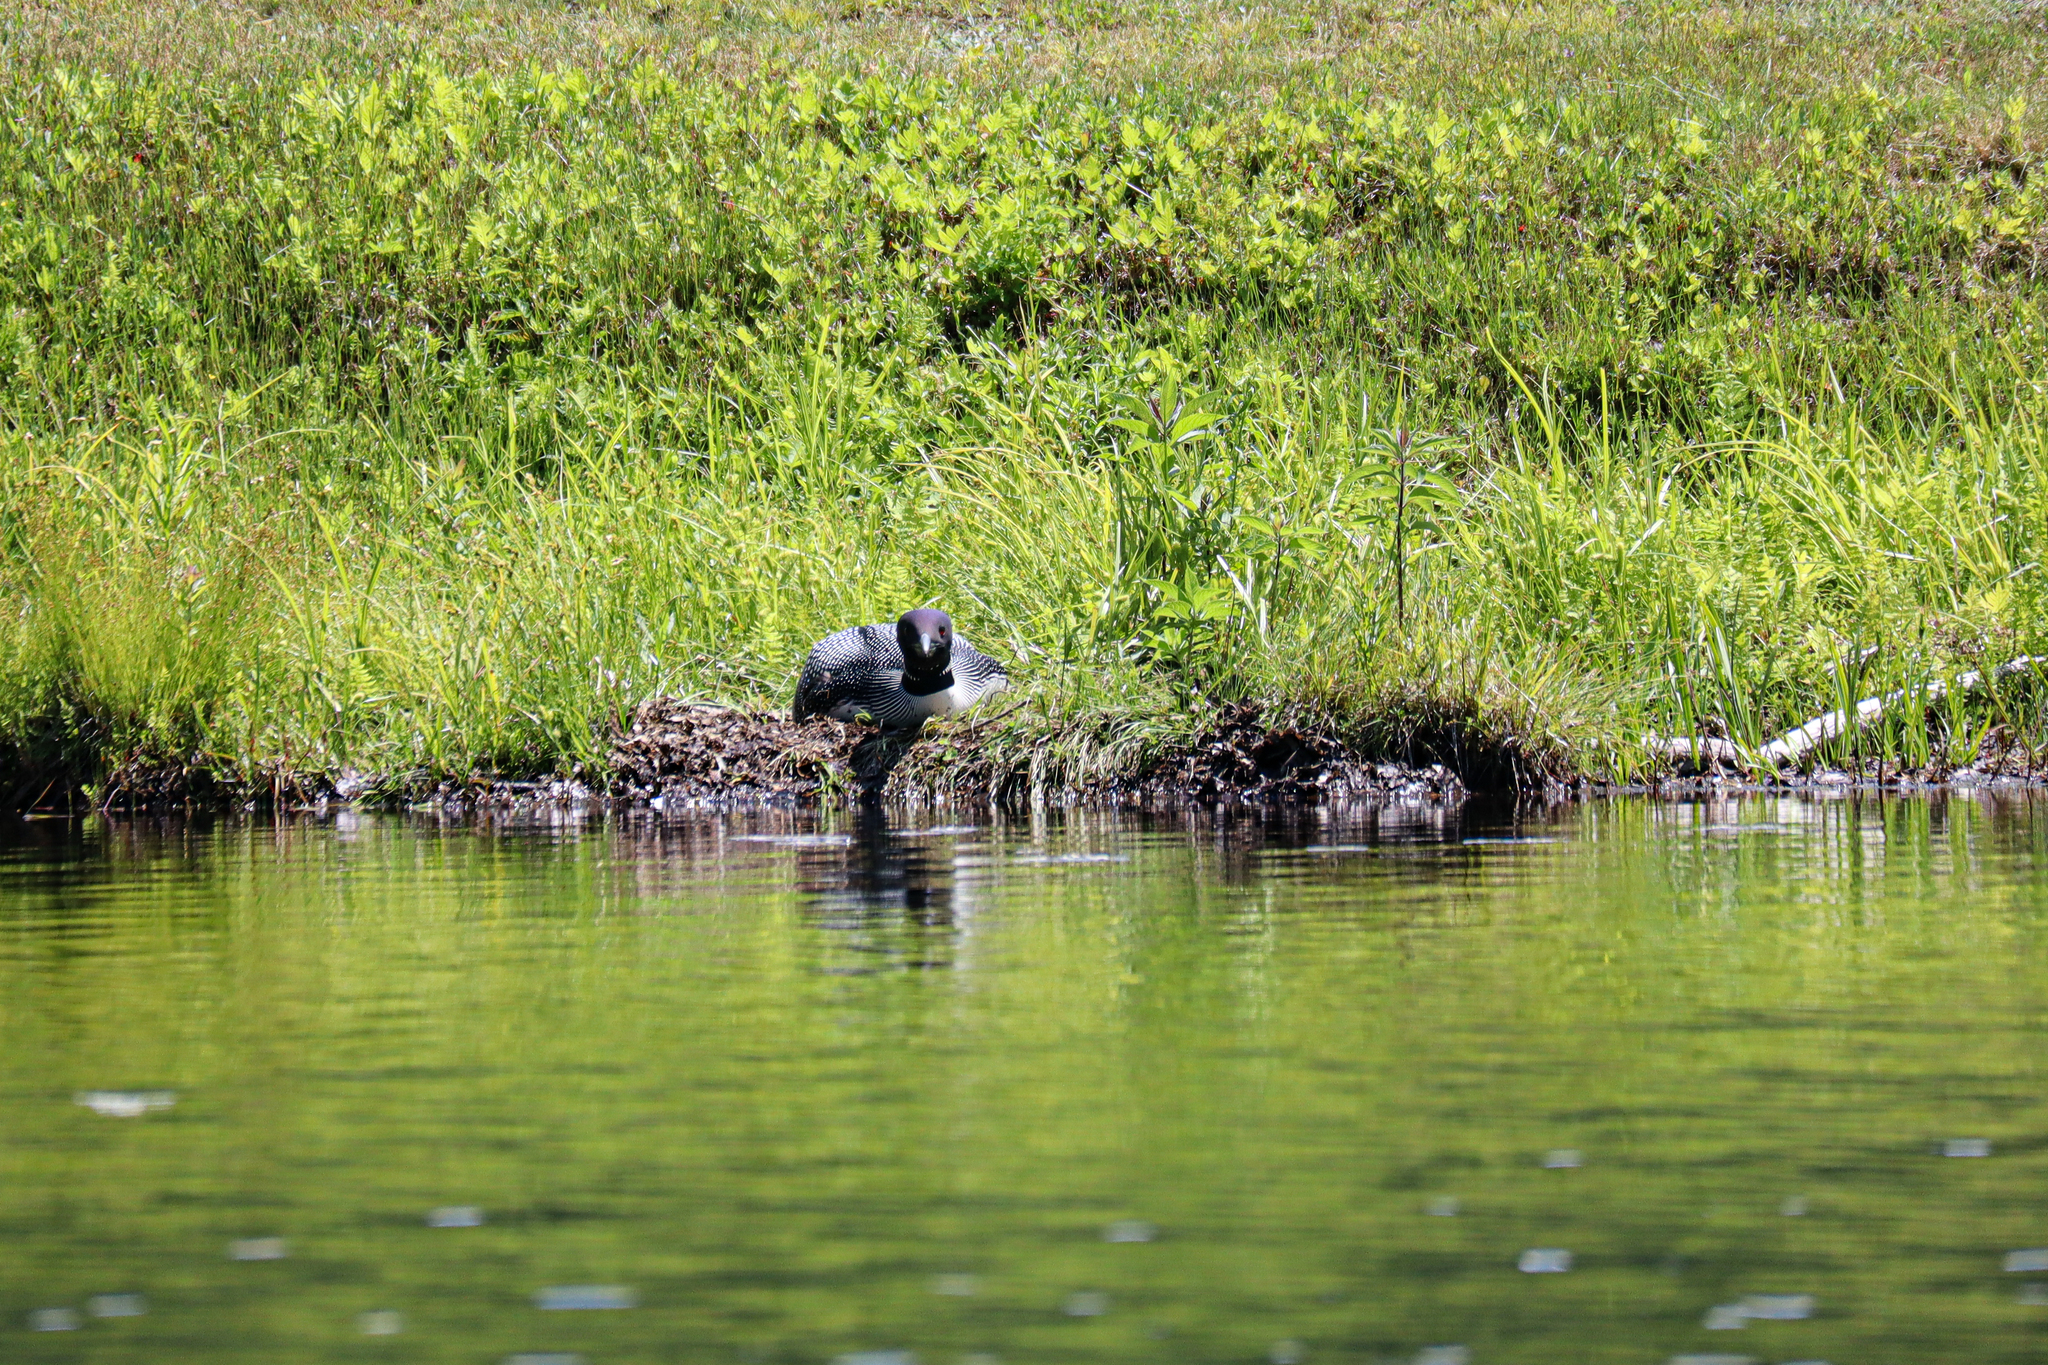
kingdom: Animalia
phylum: Chordata
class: Aves
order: Gaviiformes
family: Gaviidae
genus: Gavia
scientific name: Gavia immer
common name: Common loon
